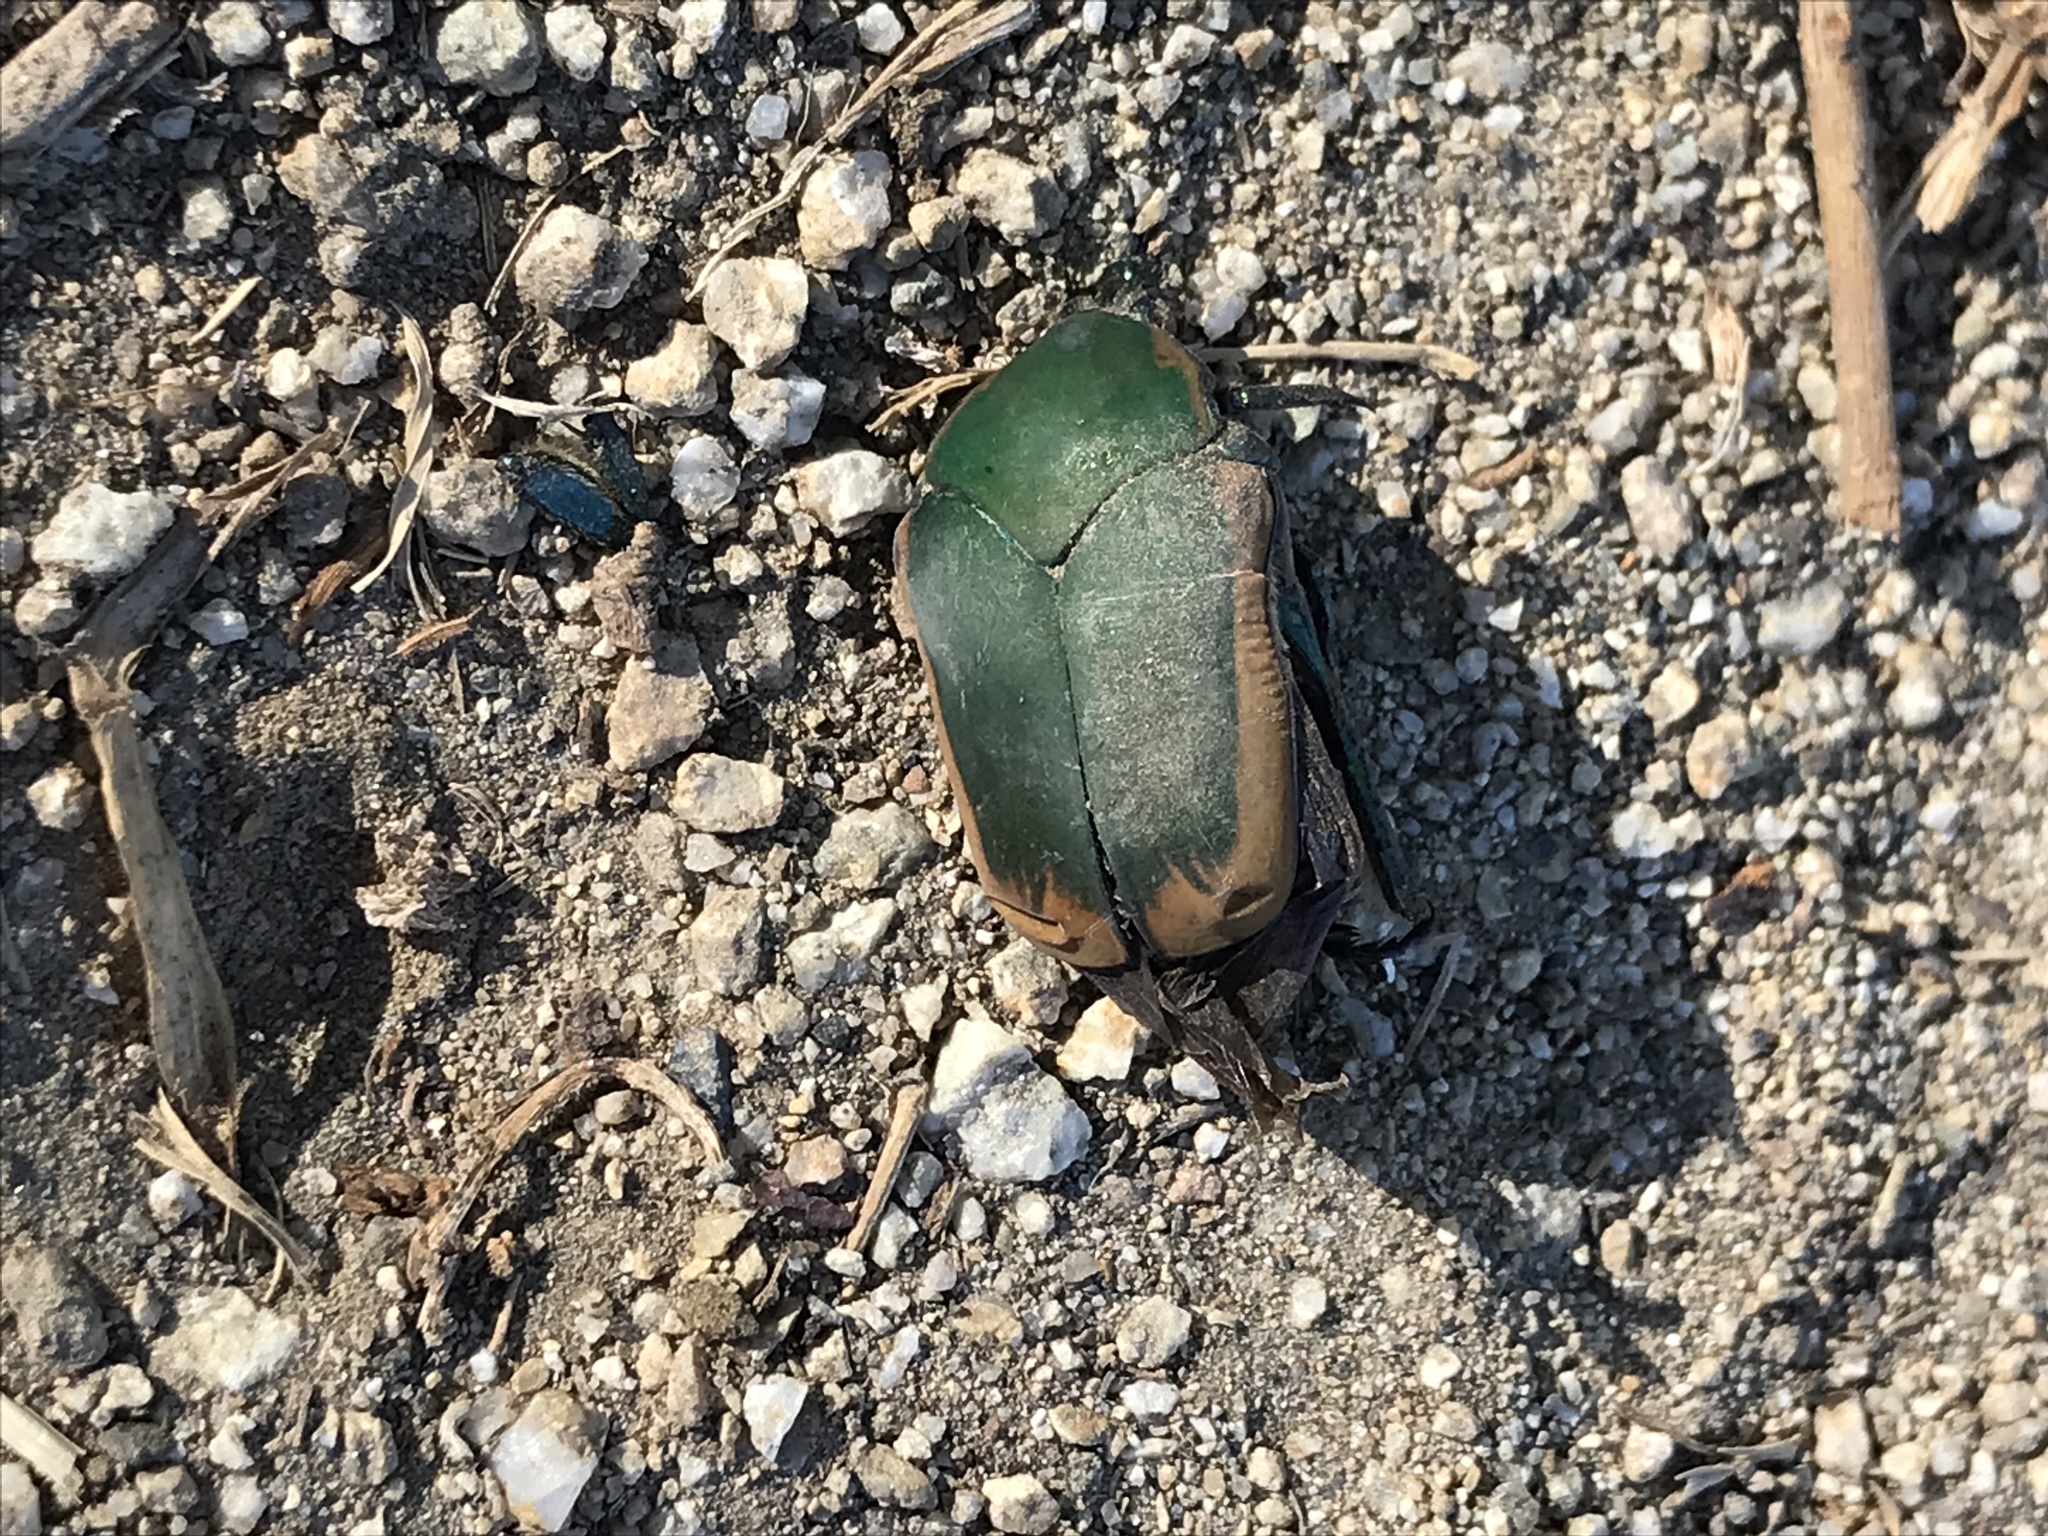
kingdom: Animalia
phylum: Arthropoda
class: Insecta
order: Coleoptera
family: Scarabaeidae
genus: Cotinis
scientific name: Cotinis mutabilis
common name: Figeater beetle
